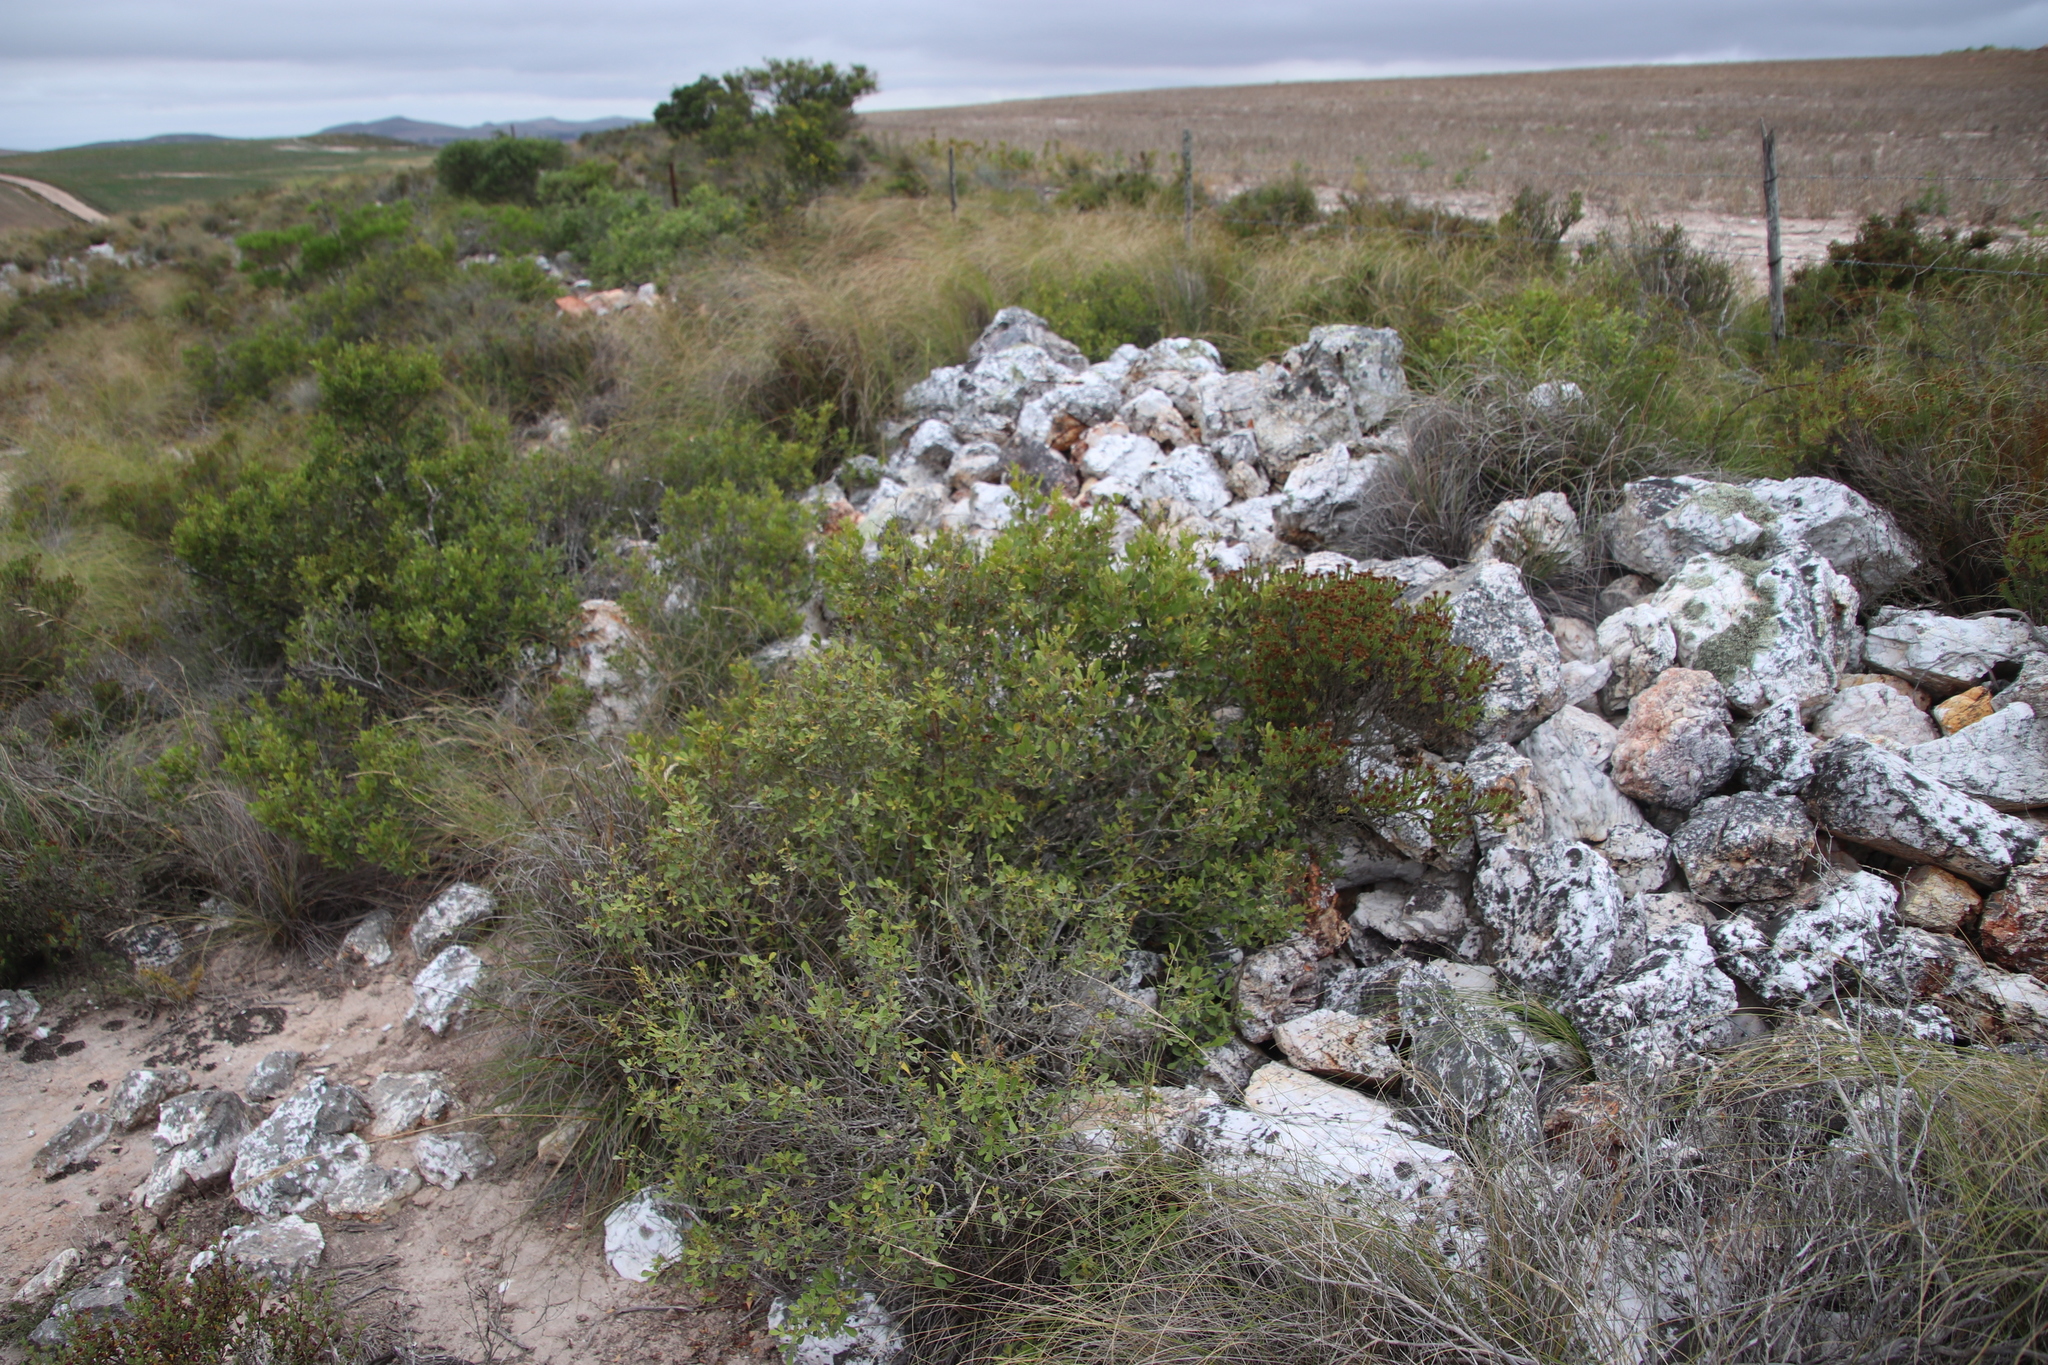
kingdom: Plantae
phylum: Tracheophyta
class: Magnoliopsida
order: Sapindales
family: Anacardiaceae
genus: Searsia
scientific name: Searsia pallens
